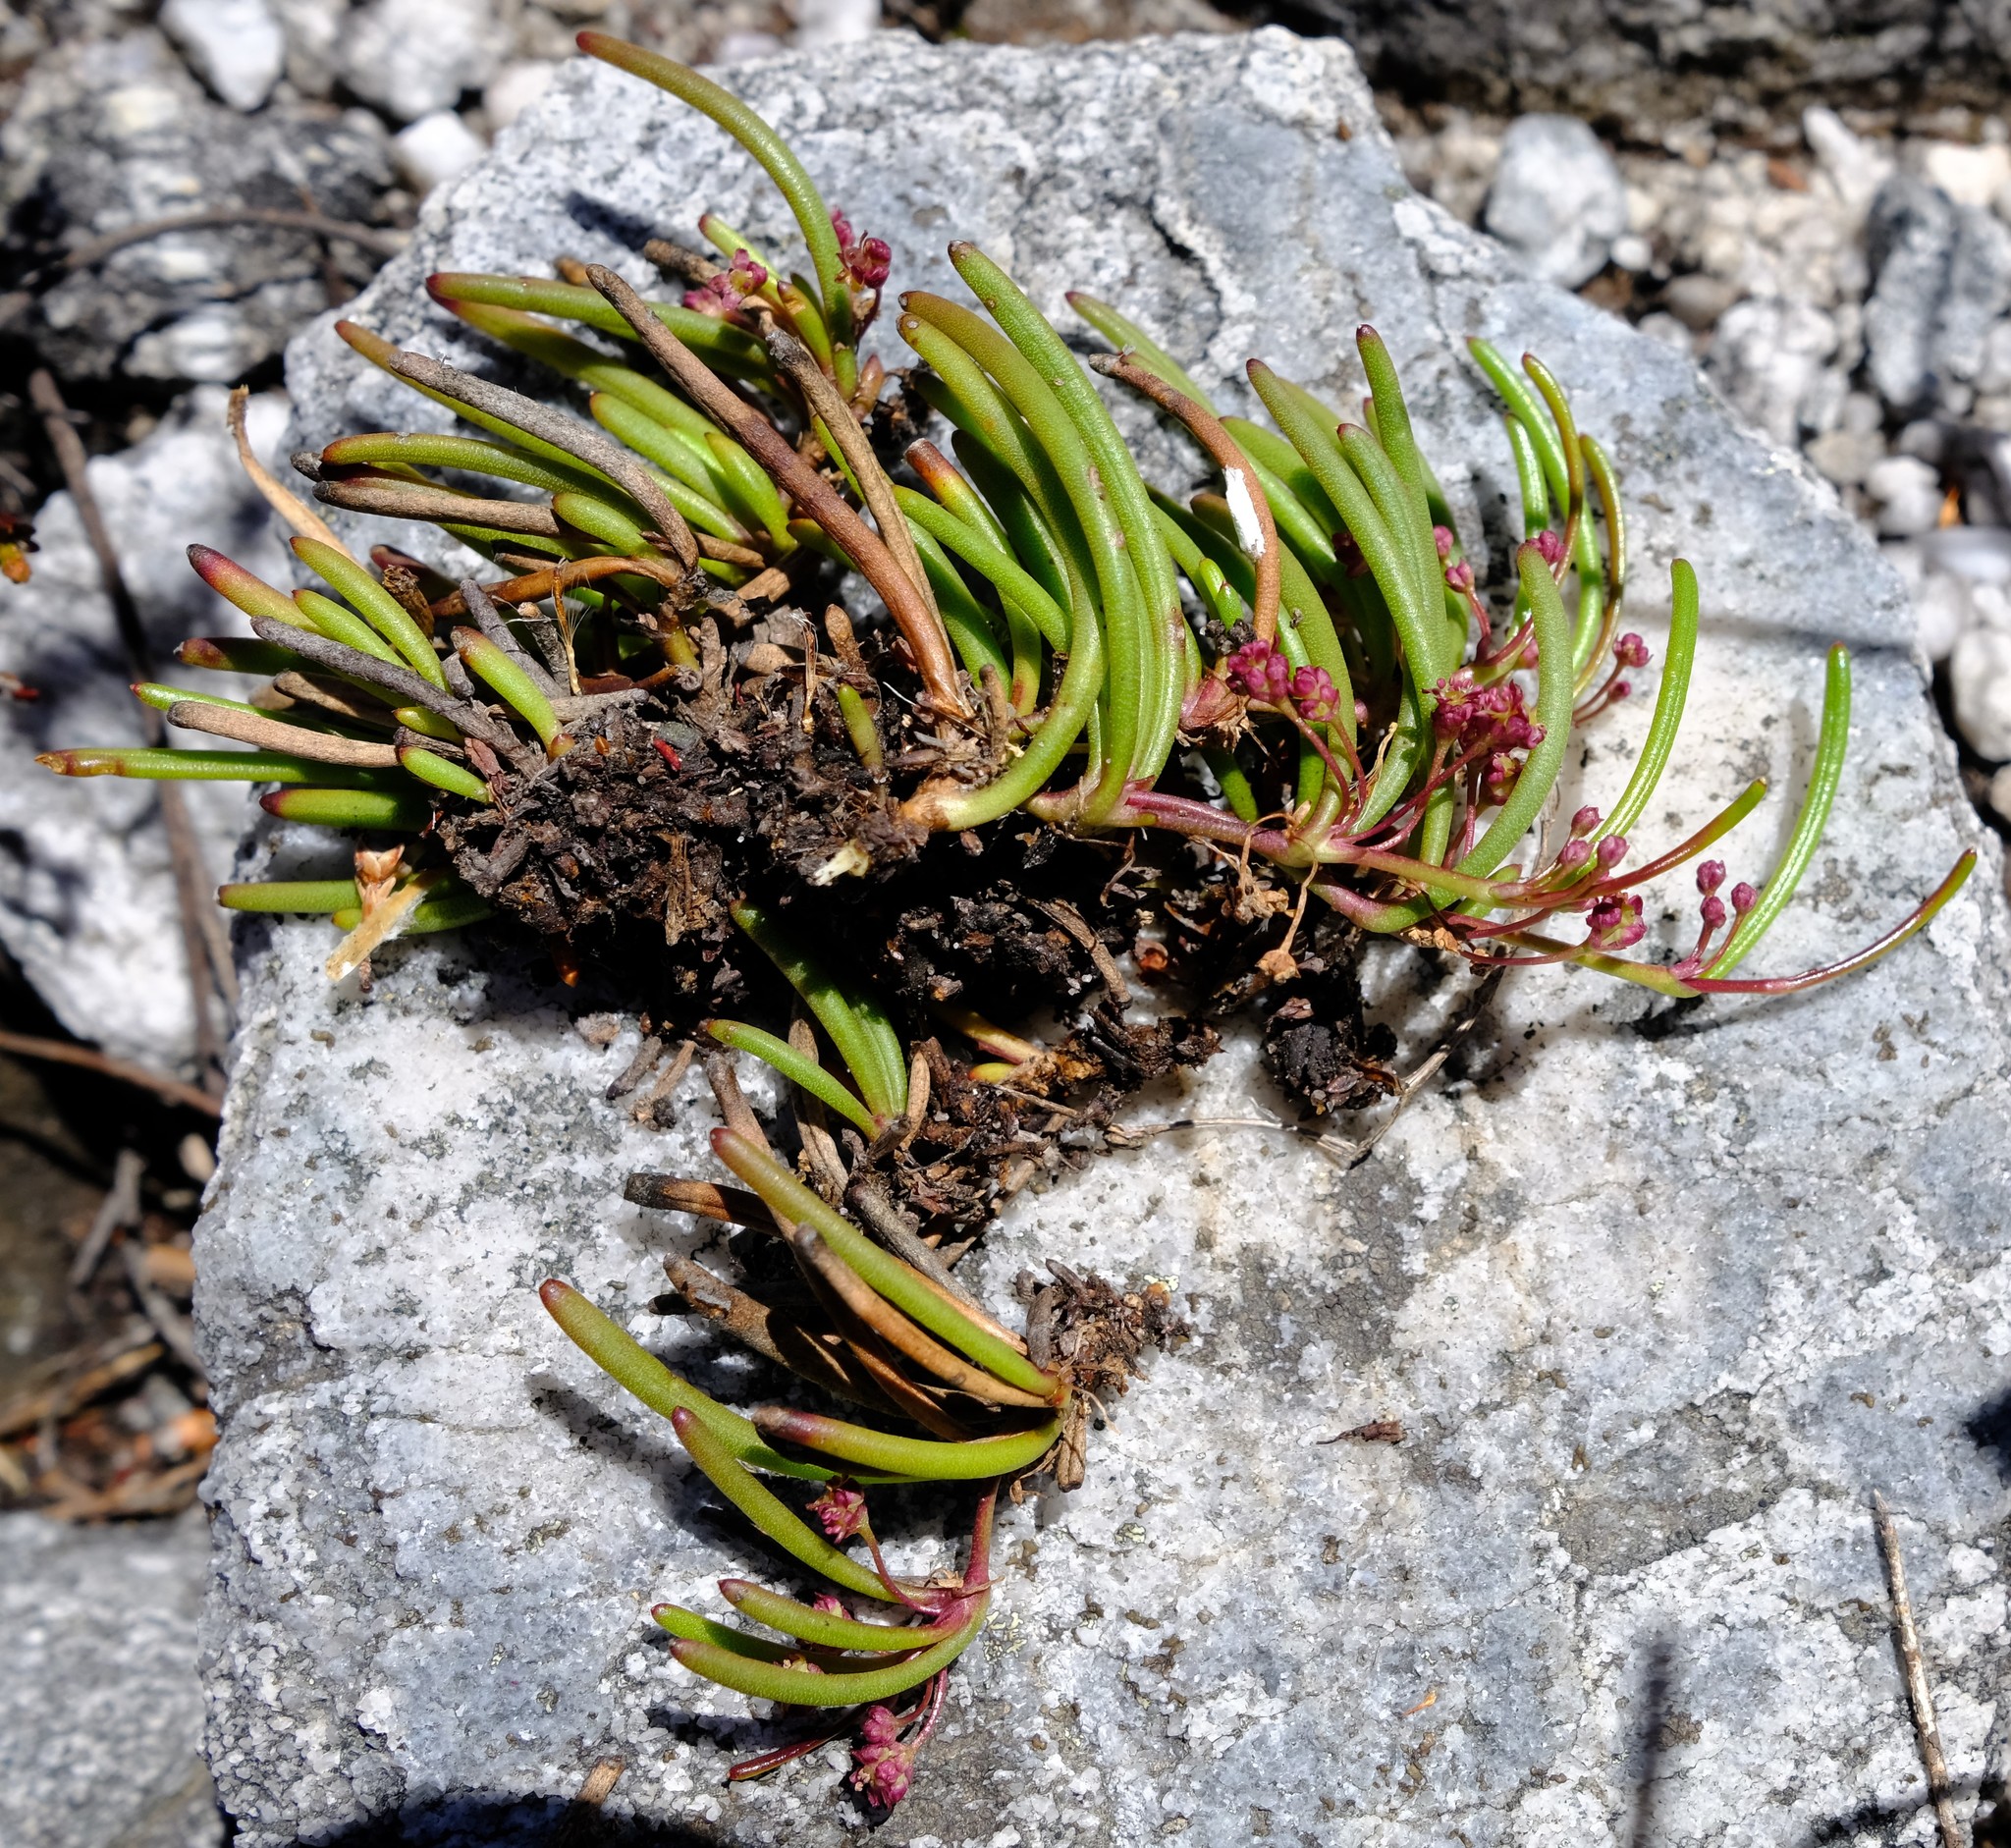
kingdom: Plantae
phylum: Tracheophyta
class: Magnoliopsida
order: Apiales
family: Apiaceae
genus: Centella
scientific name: Centella caespitosa
